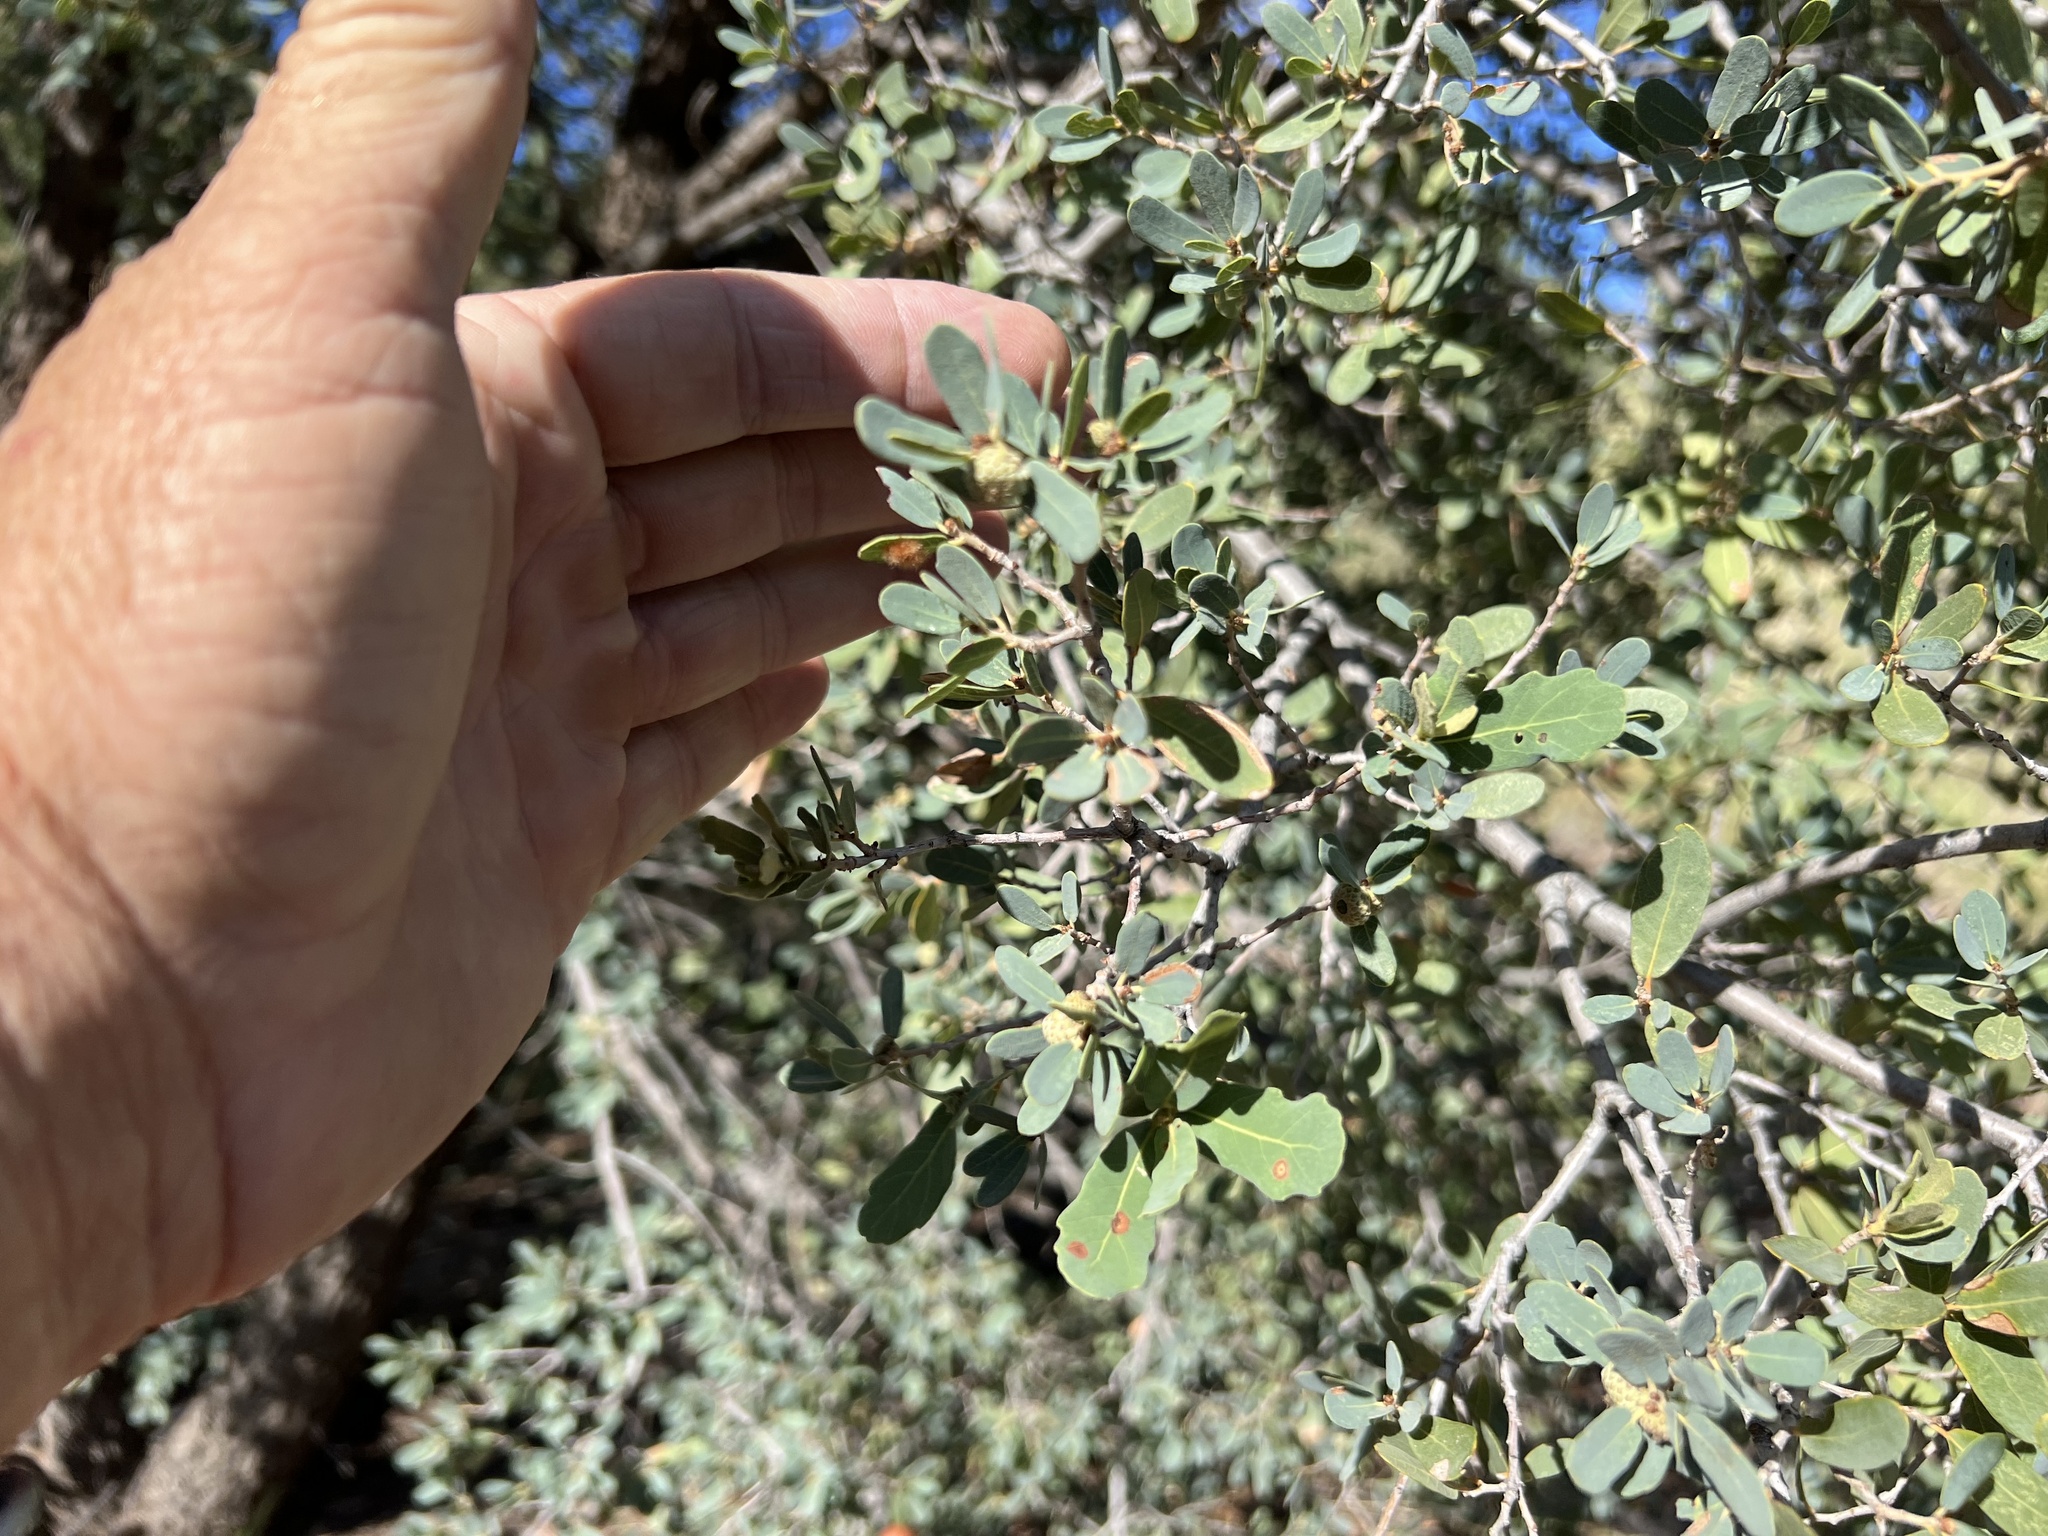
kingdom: Plantae
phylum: Tracheophyta
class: Magnoliopsida
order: Fagales
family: Fagaceae
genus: Quercus
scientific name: Quercus oblongifolia
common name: Mexican blue oak
